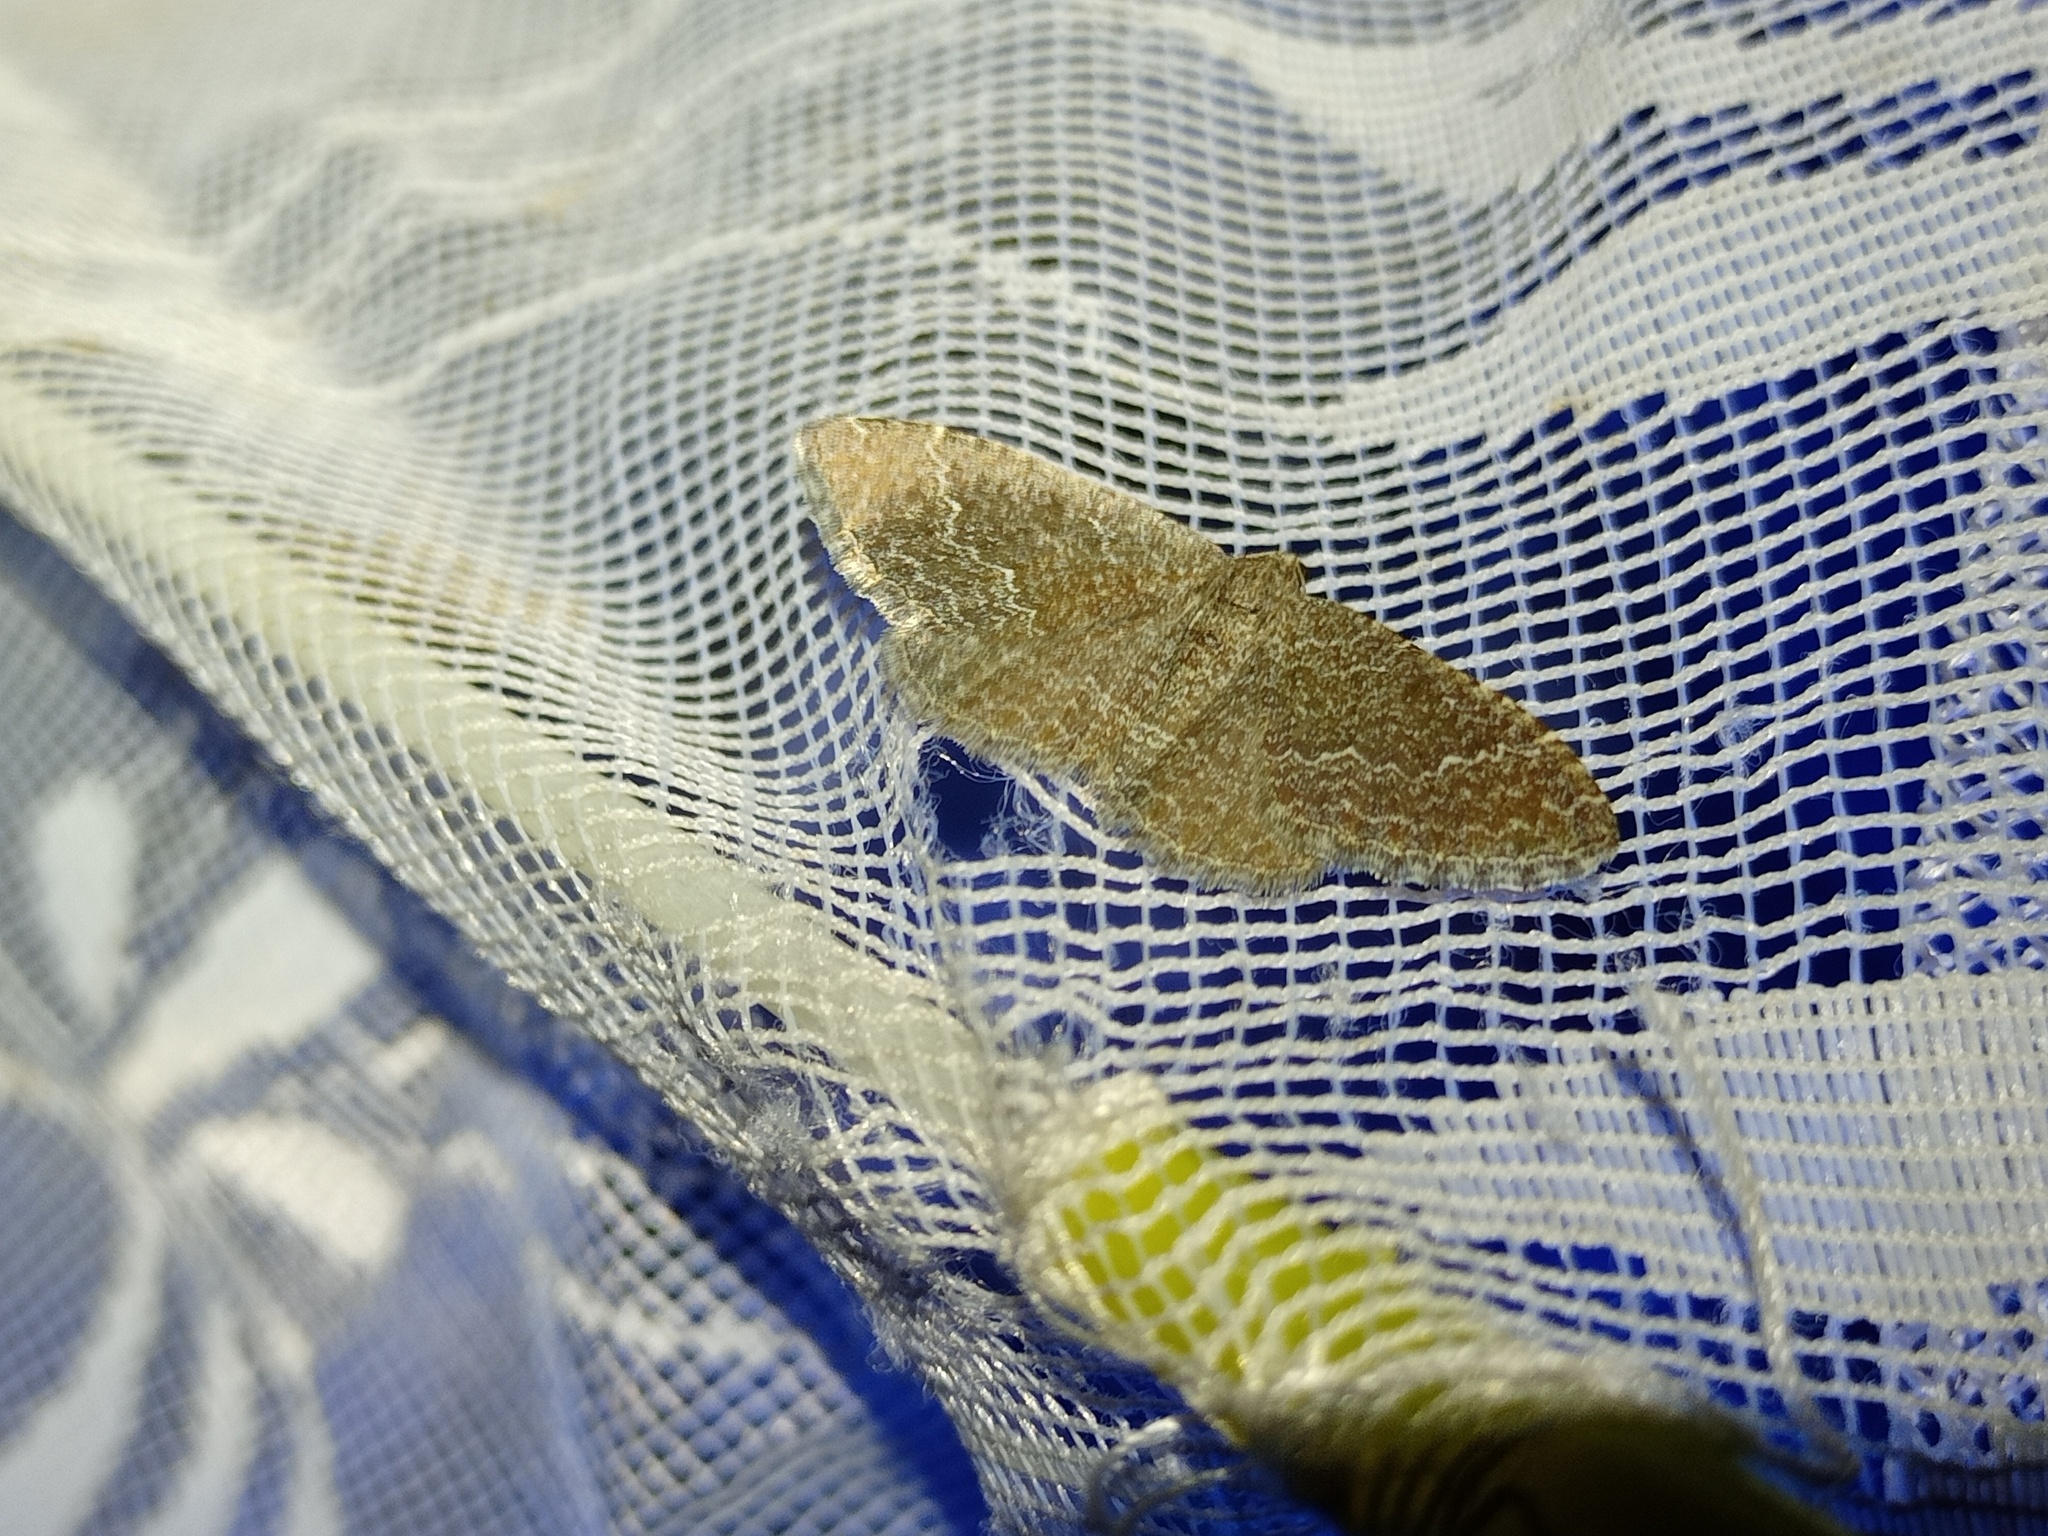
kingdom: Animalia
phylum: Arthropoda
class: Insecta
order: Lepidoptera
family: Geometridae
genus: Cataclysme
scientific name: Cataclysme riguata
